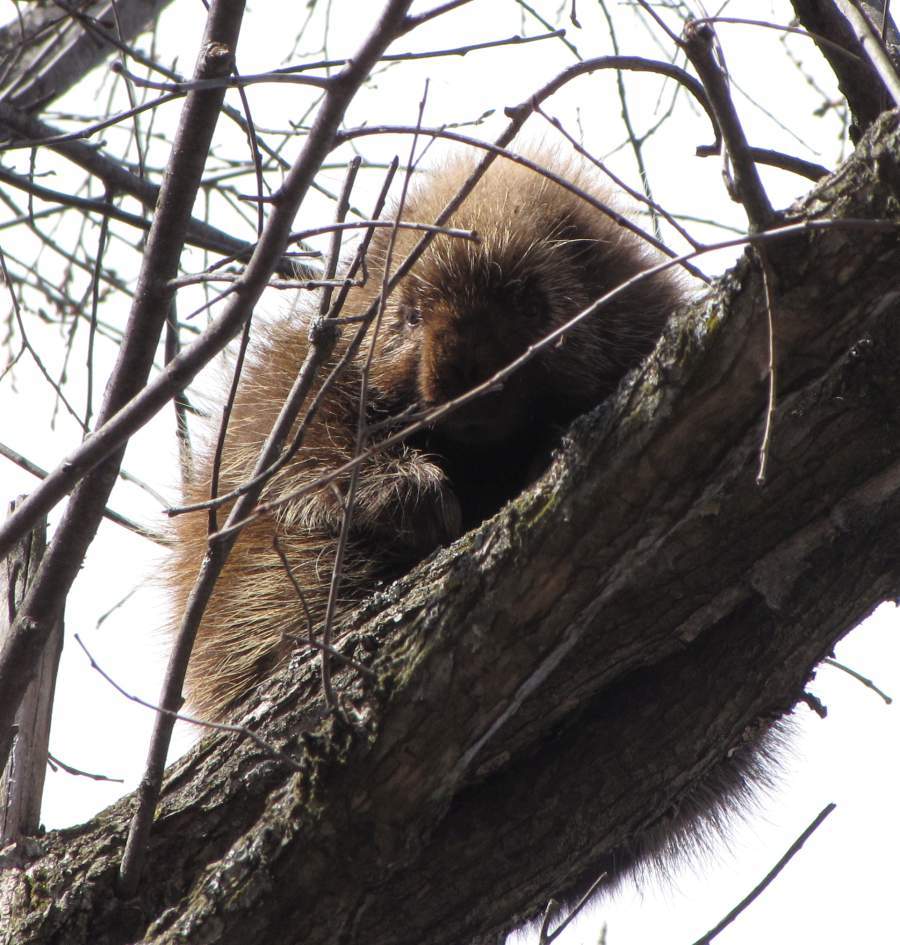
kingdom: Animalia
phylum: Chordata
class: Mammalia
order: Rodentia
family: Erethizontidae
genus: Erethizon
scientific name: Erethizon dorsatus
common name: North american porcupine
